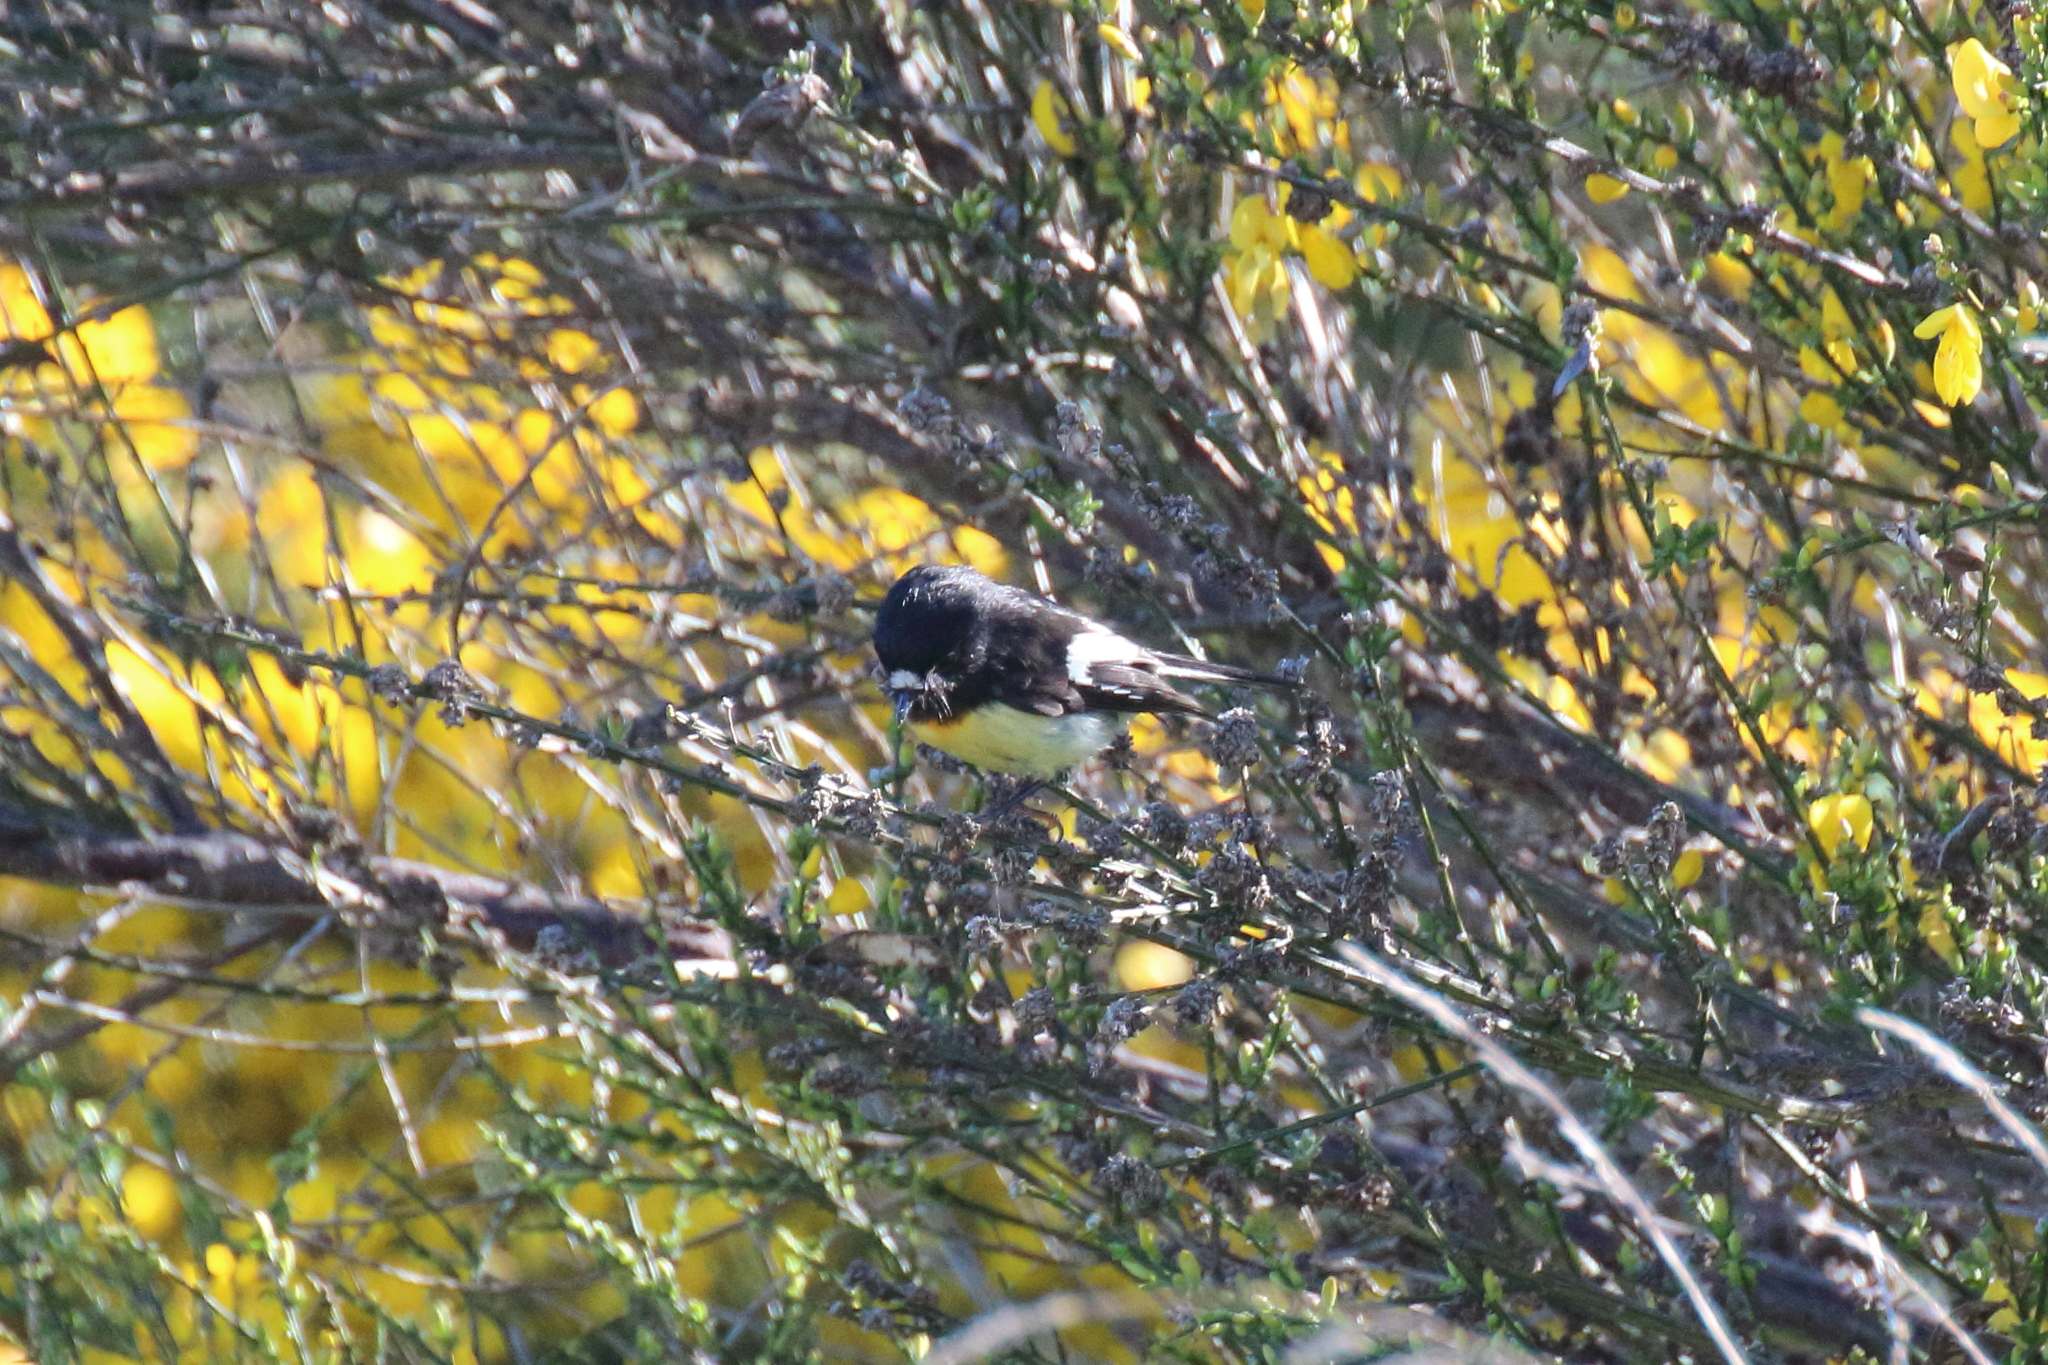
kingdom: Animalia
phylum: Chordata
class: Aves
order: Passeriformes
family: Petroicidae
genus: Petroica
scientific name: Petroica macrocephala
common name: Tomtit
